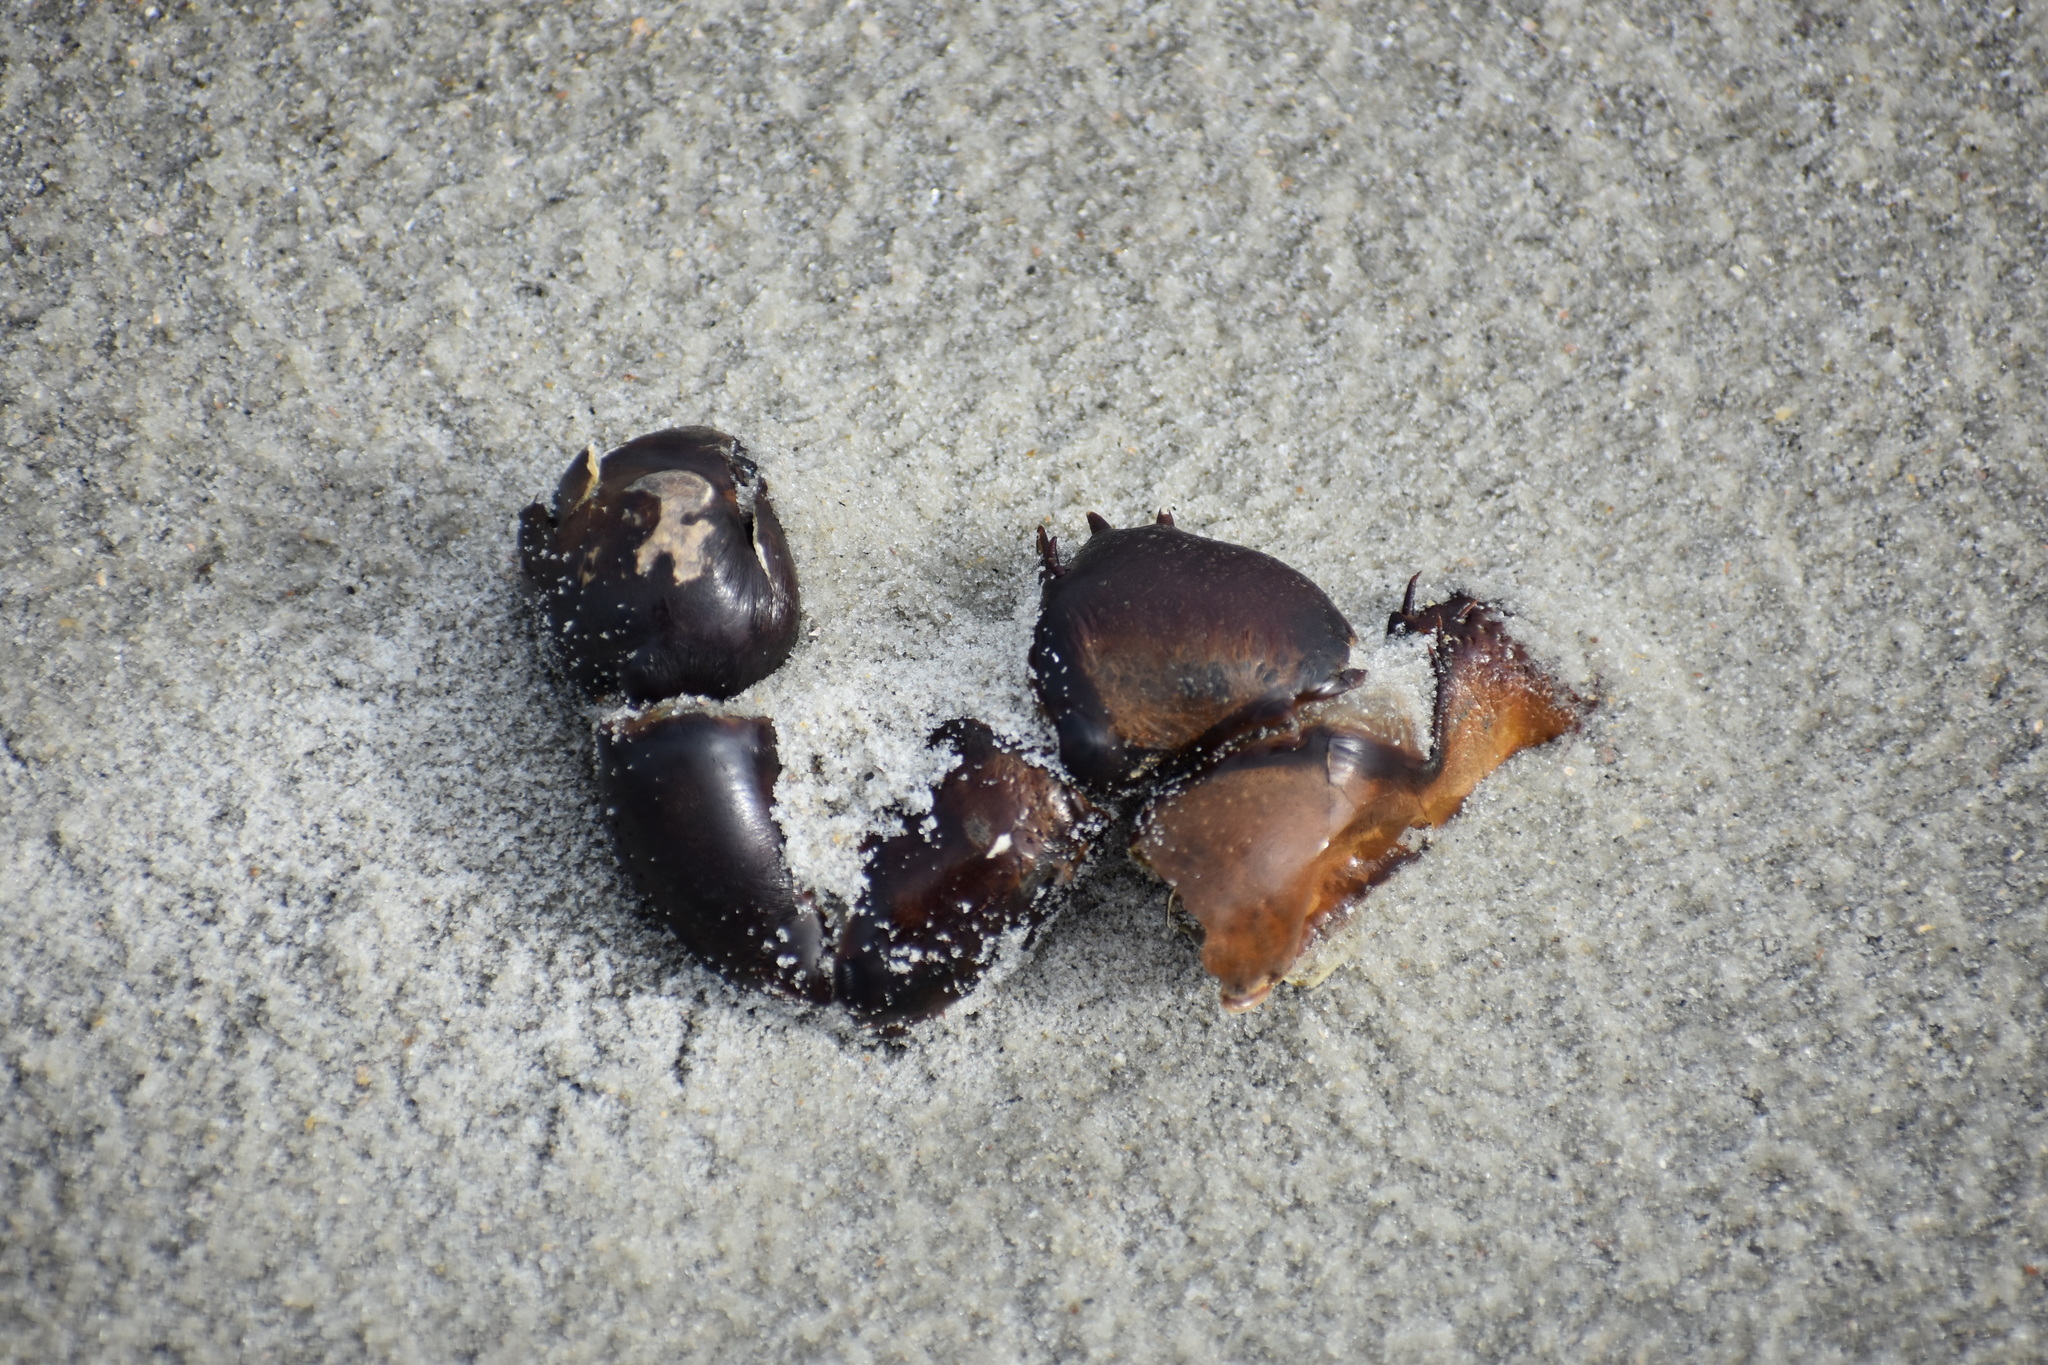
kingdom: Animalia
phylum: Arthropoda
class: Merostomata
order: Xiphosurida
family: Limulidae
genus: Limulus
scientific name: Limulus polyphemus
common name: Horseshoe crab
